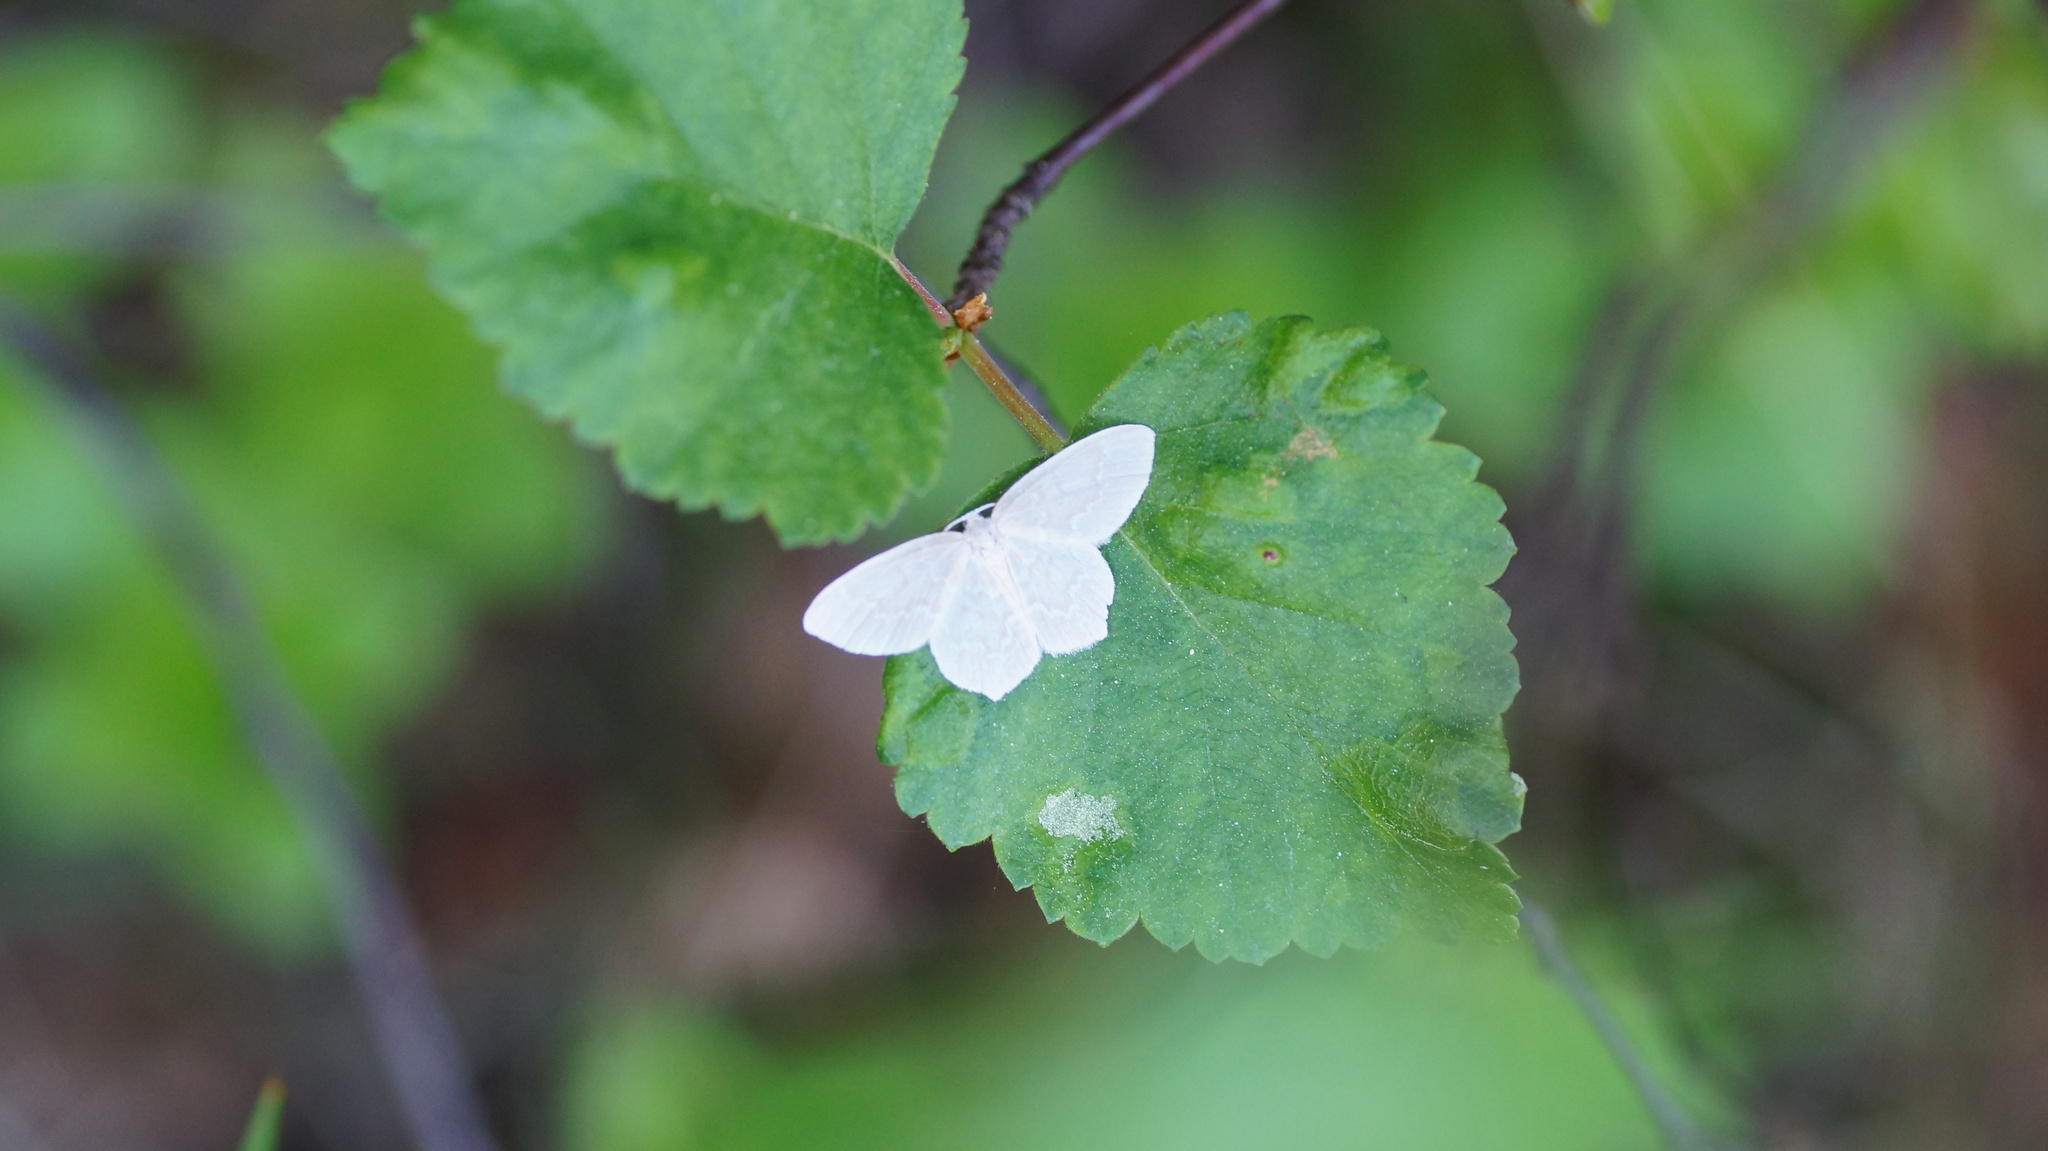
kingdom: Animalia
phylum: Arthropoda
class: Insecta
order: Lepidoptera
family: Geometridae
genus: Jodis
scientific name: Jodis putata
